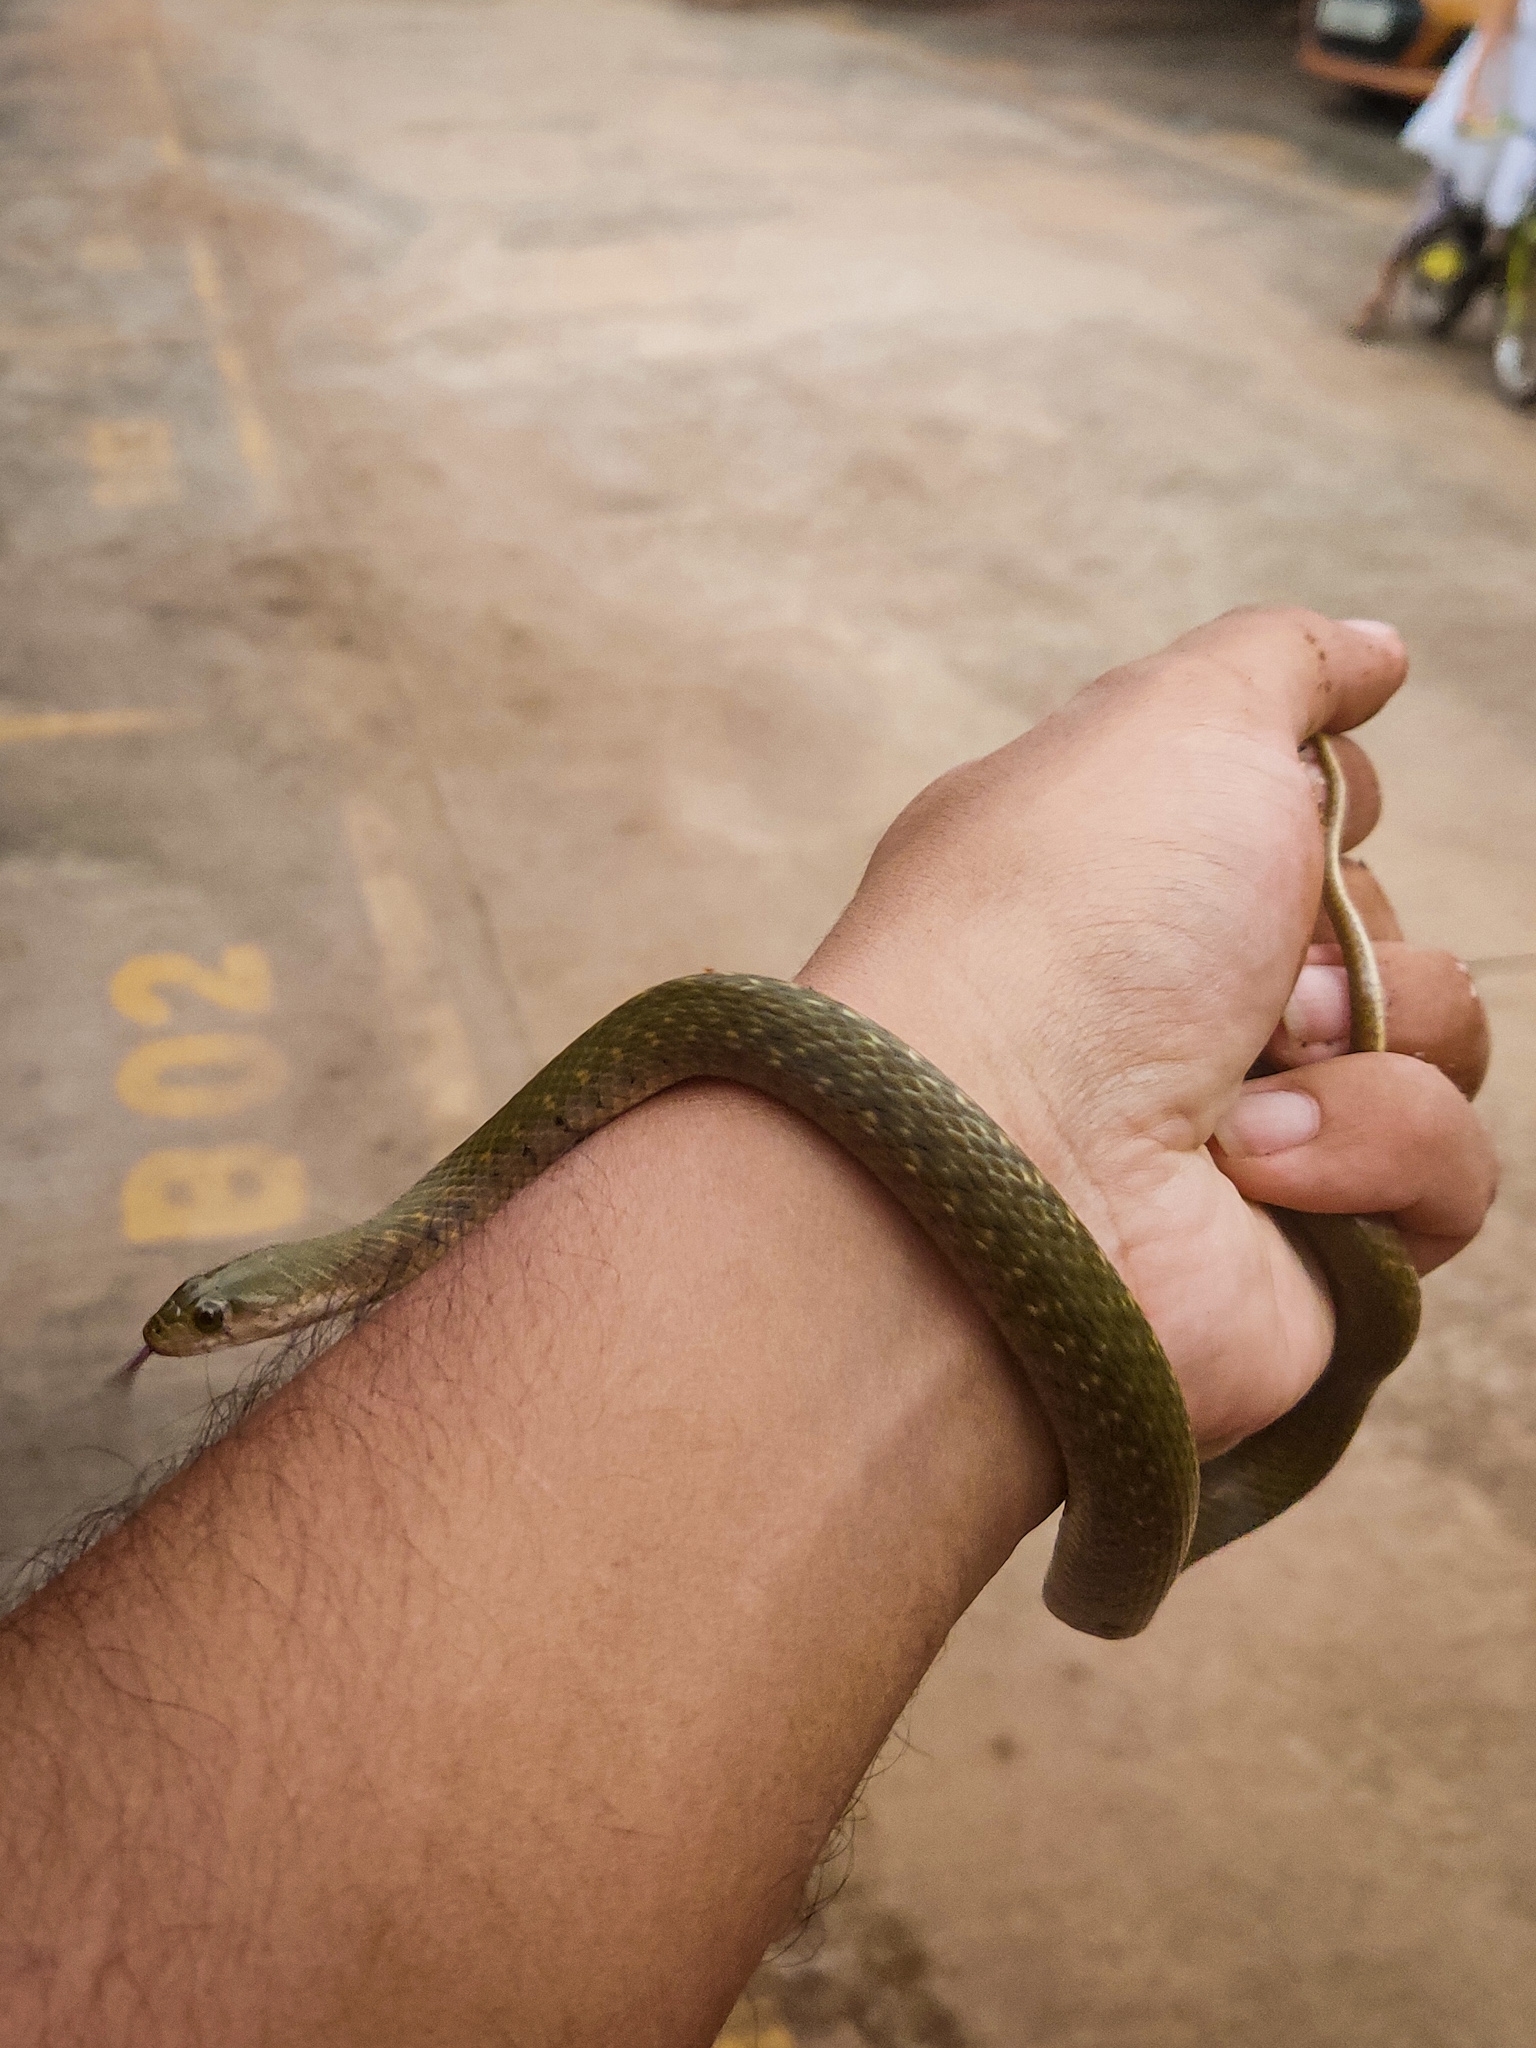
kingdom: Animalia
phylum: Chordata
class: Squamata
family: Colubridae
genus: Fowlea
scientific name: Fowlea piscator
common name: Asiatic water snake
